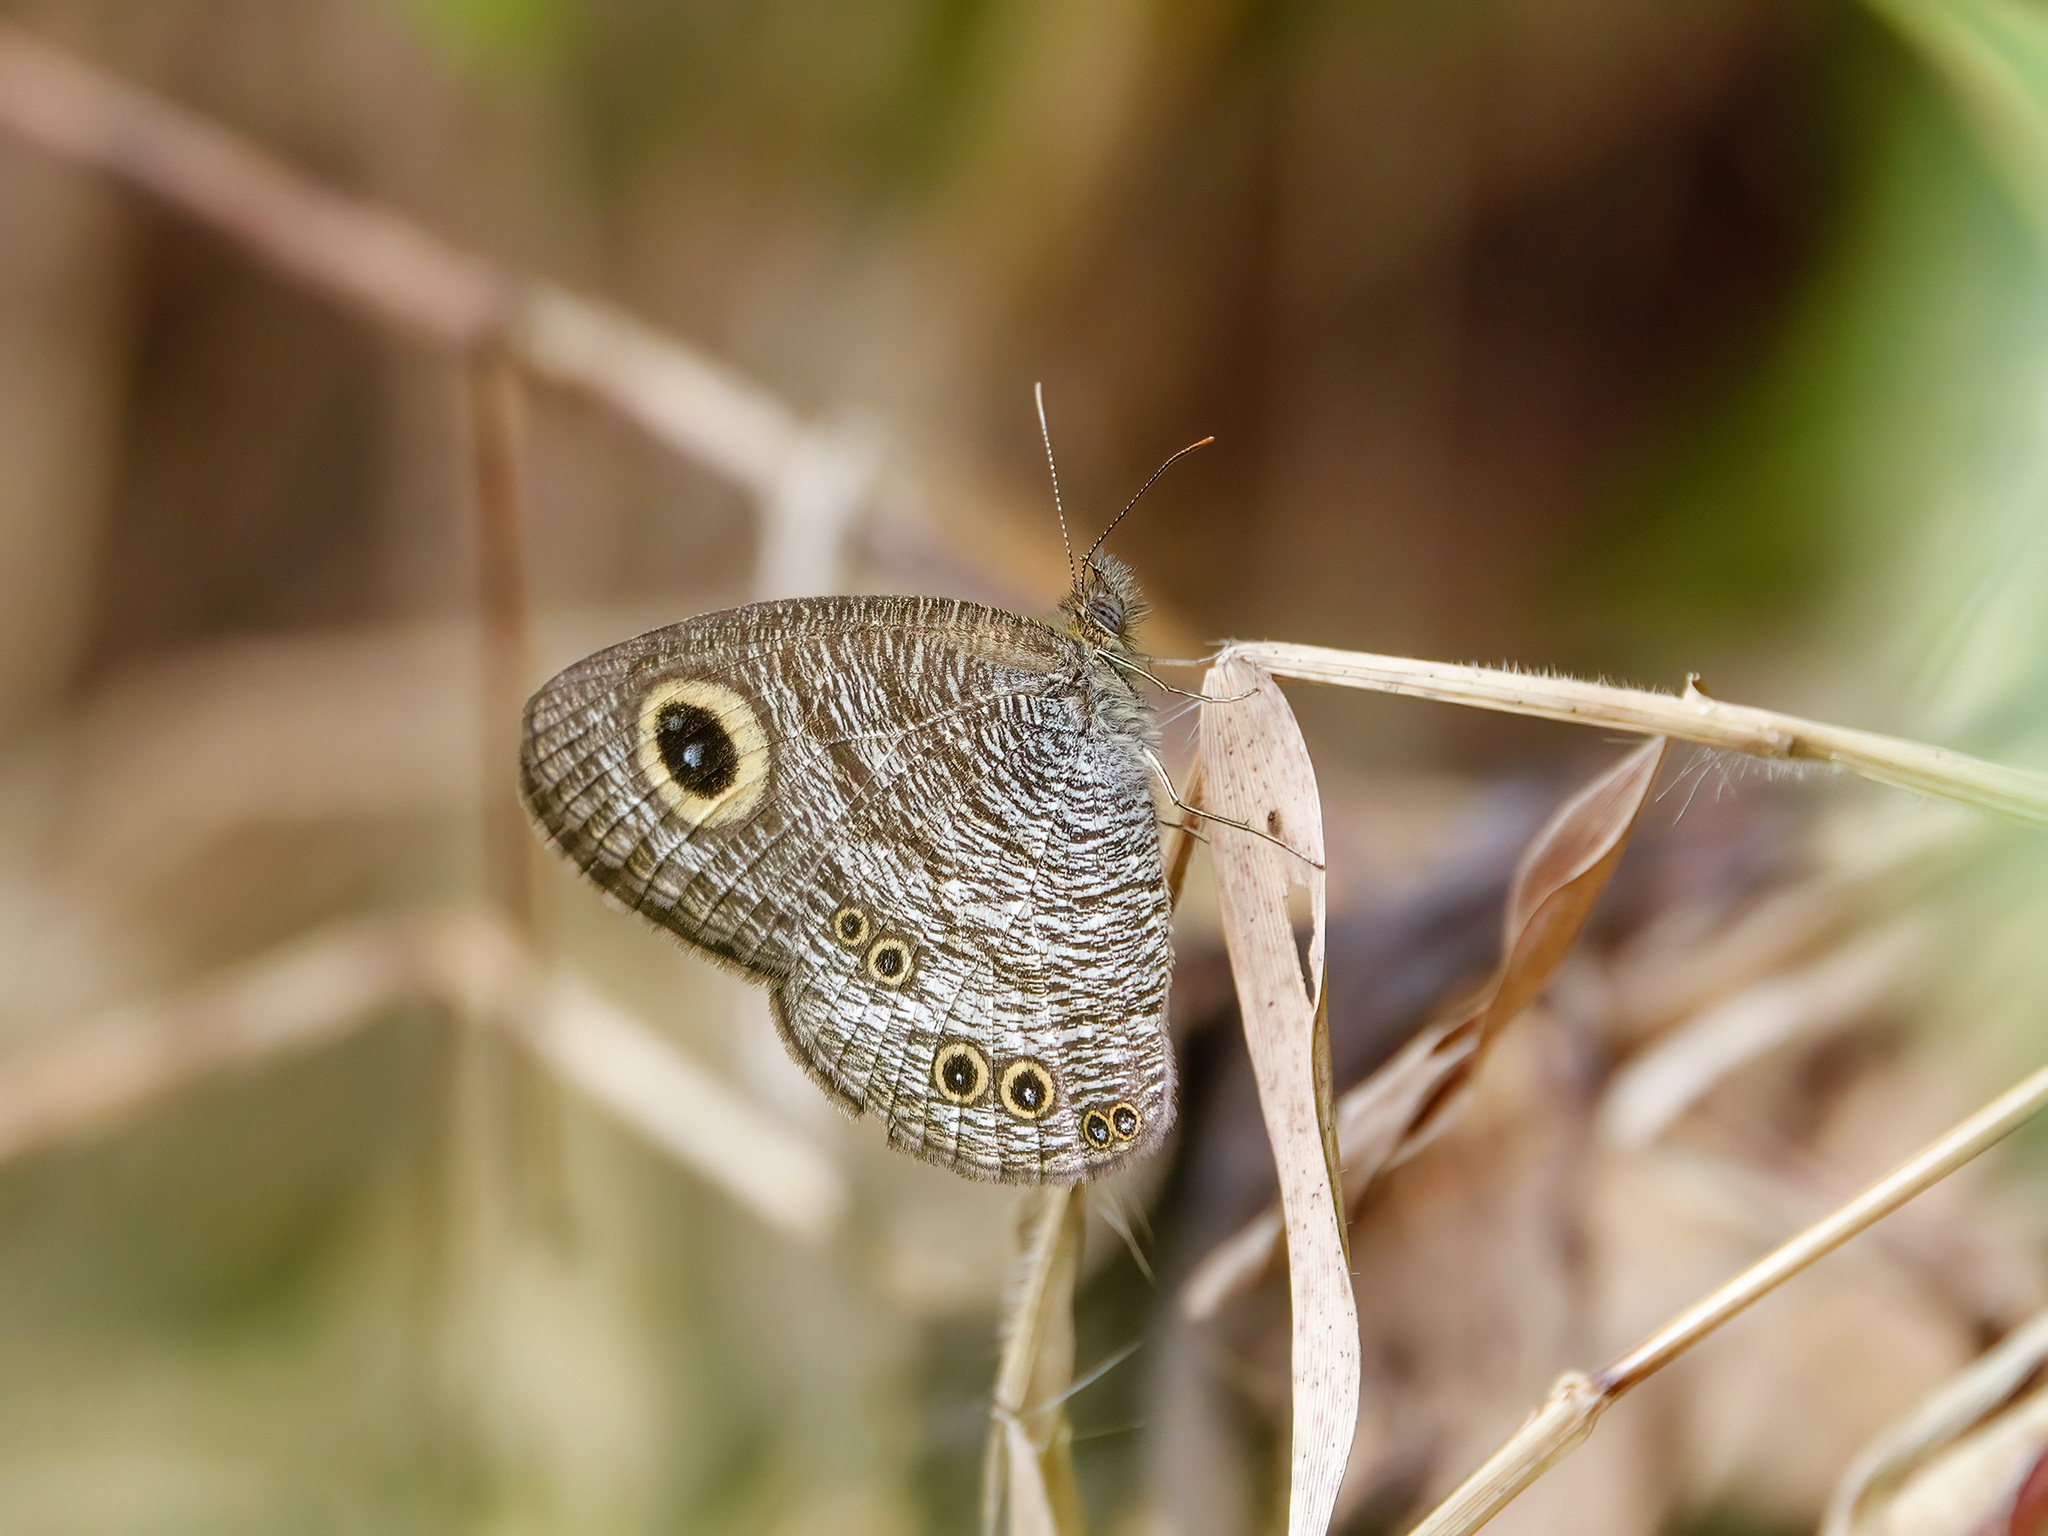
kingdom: Animalia
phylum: Arthropoda
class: Insecta
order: Lepidoptera
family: Nymphalidae
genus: Ypthima
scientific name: Ypthima baldus
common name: Common five-ring
